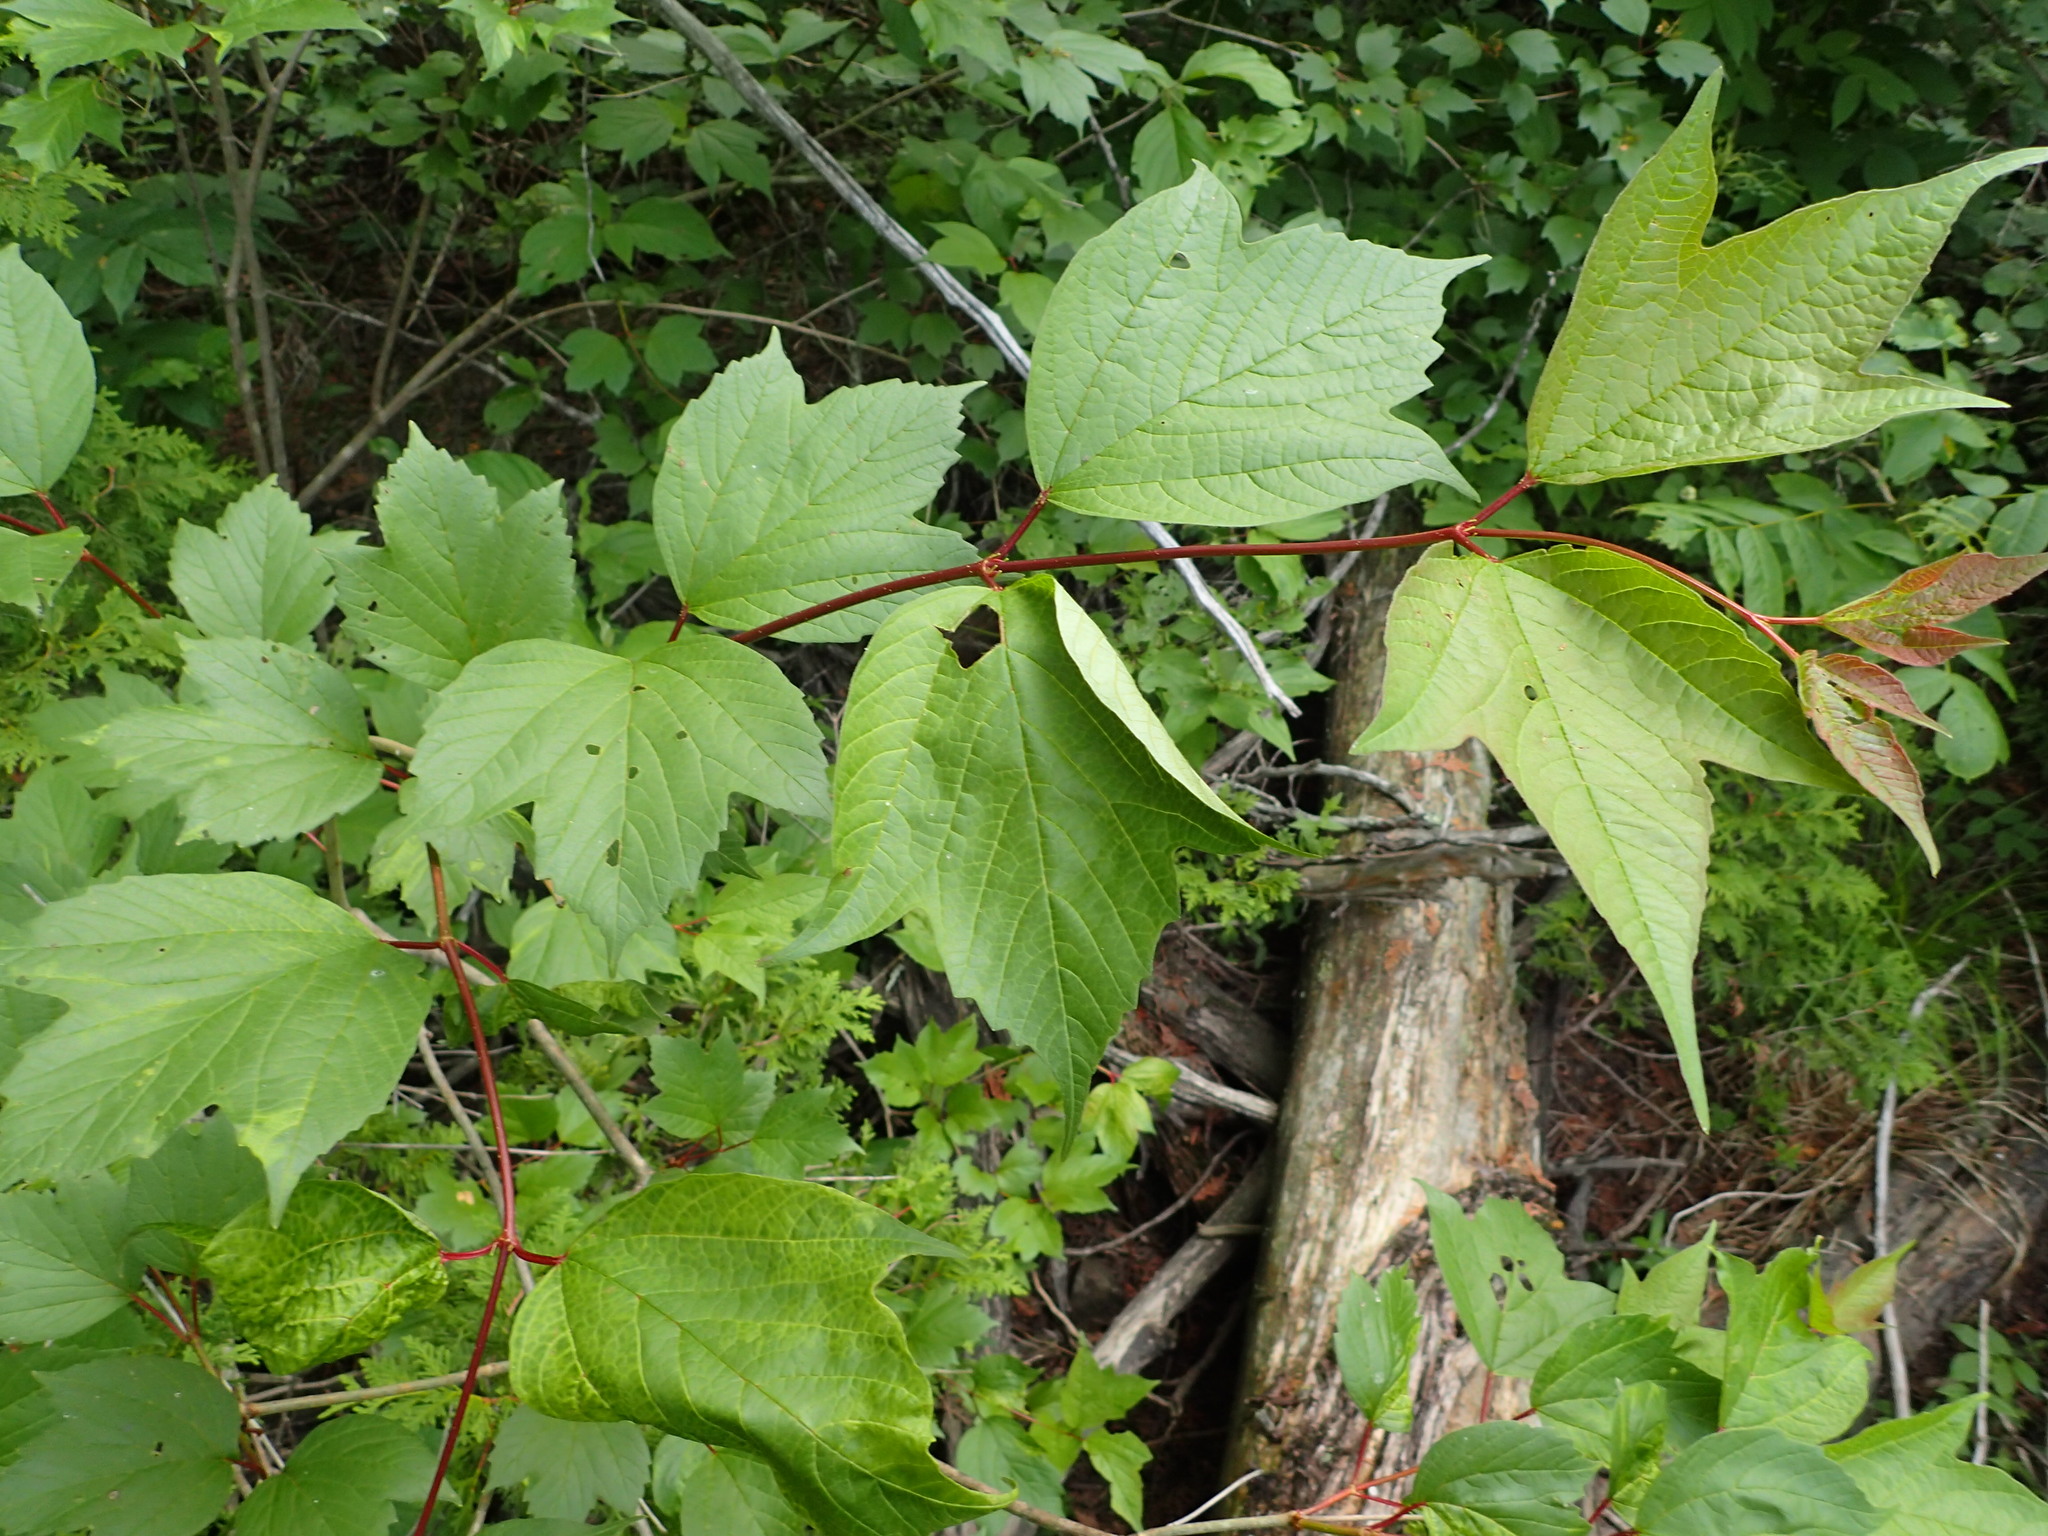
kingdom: Plantae
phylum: Tracheophyta
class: Magnoliopsida
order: Dipsacales
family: Viburnaceae
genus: Viburnum
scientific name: Viburnum opulus
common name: Guelder-rose
